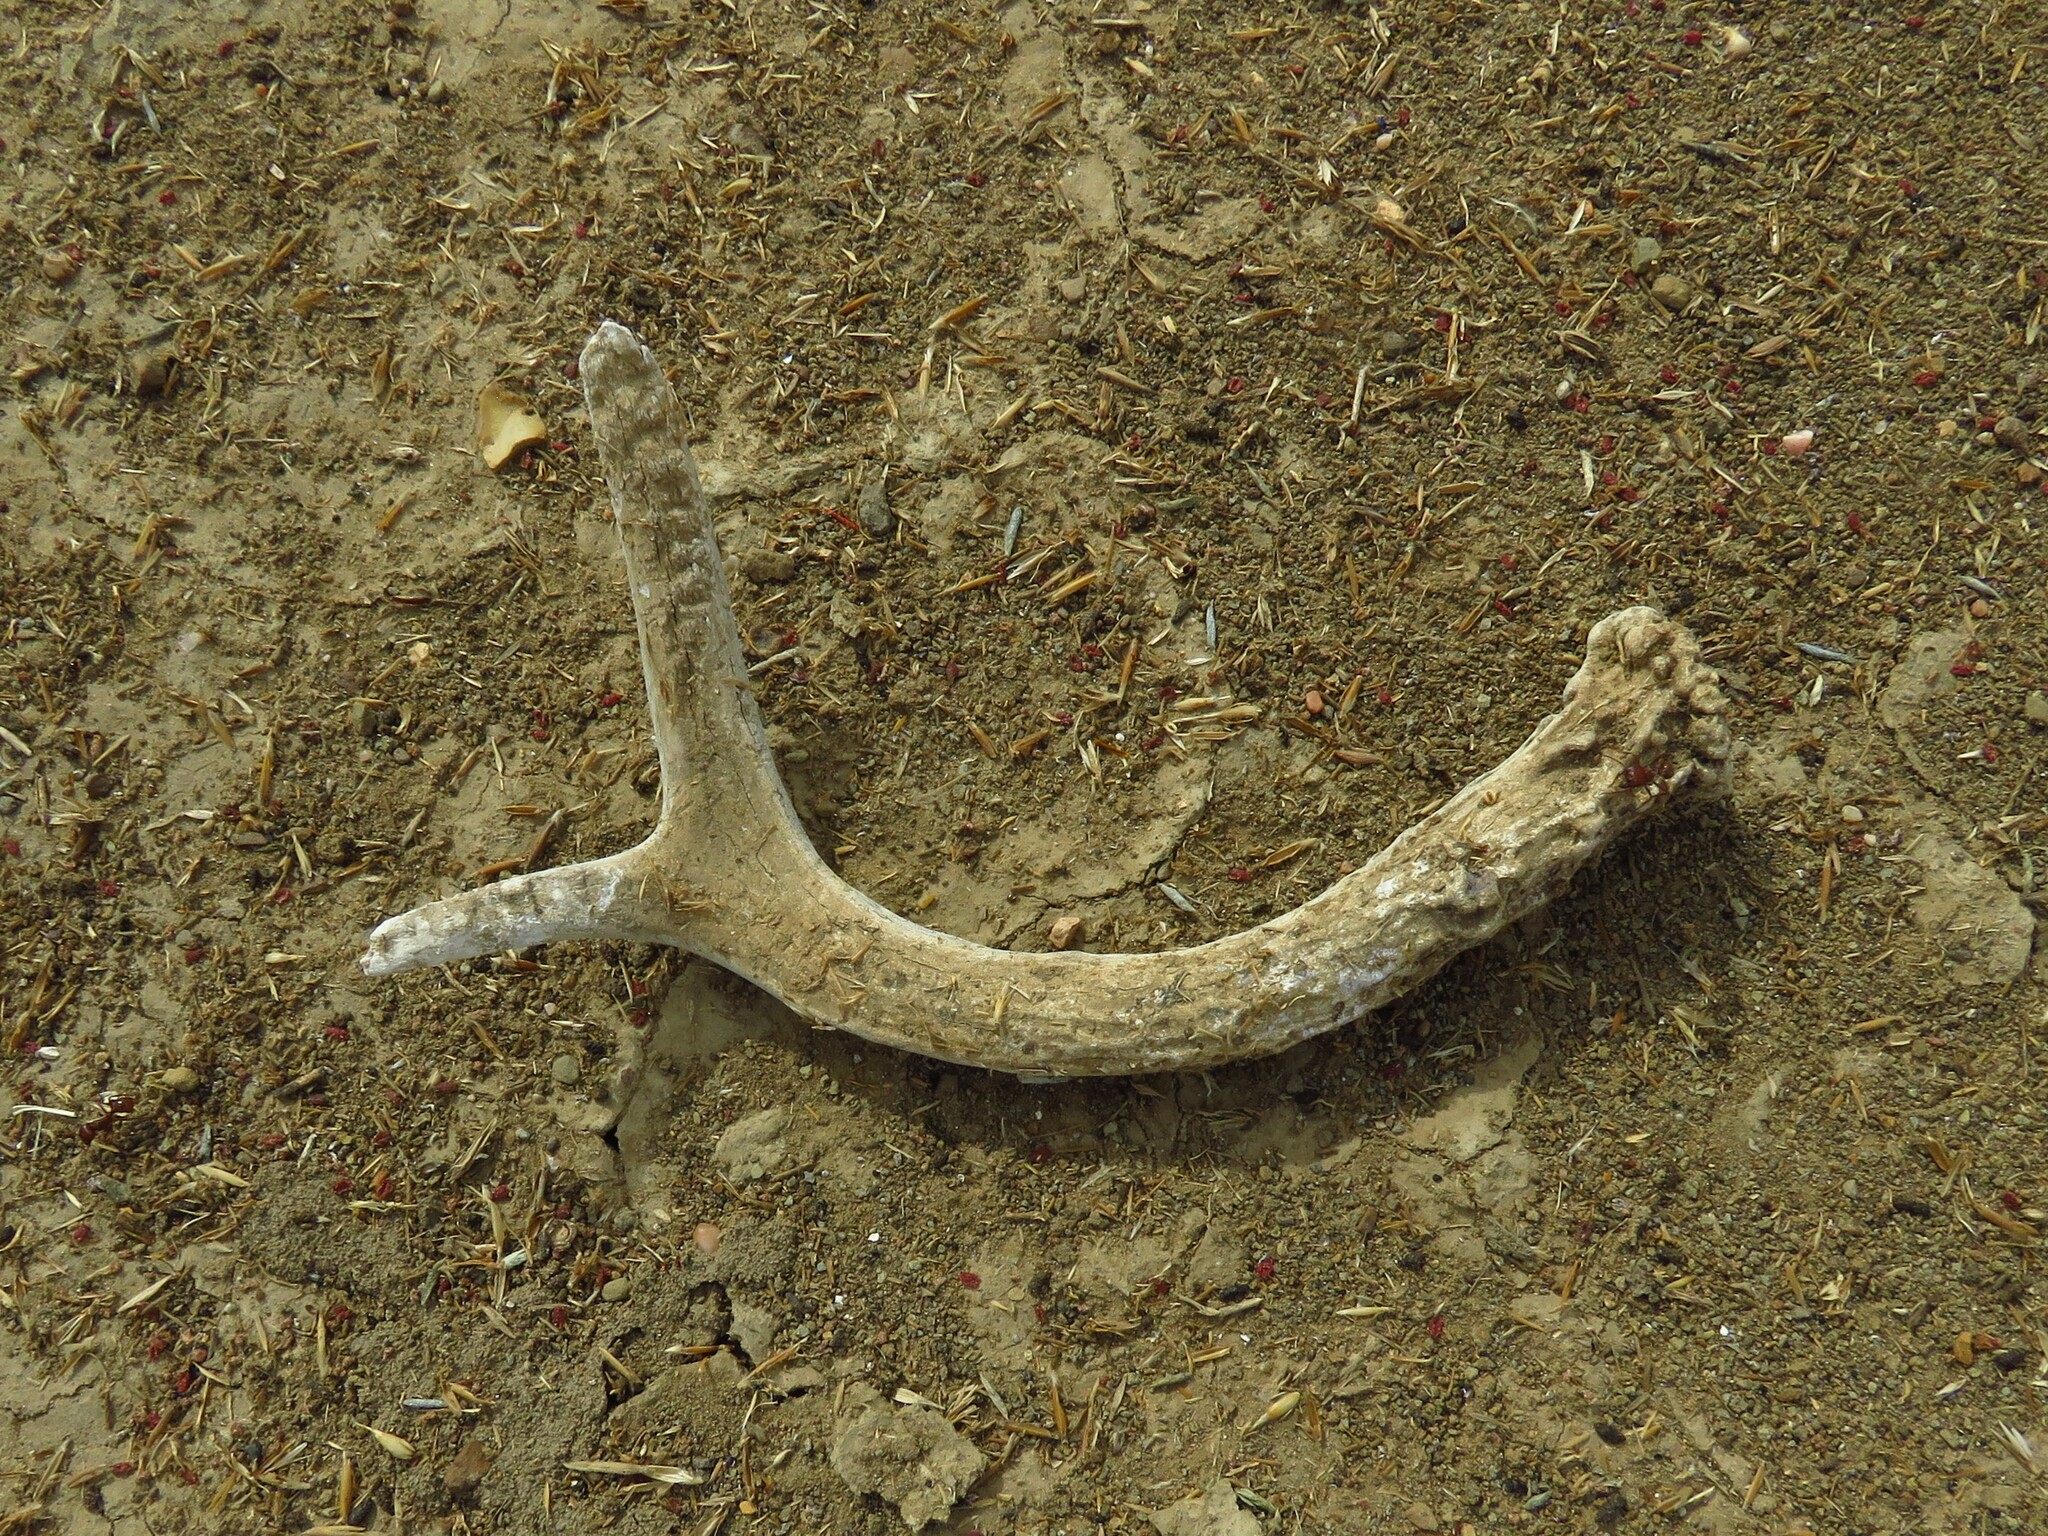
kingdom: Animalia
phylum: Chordata
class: Mammalia
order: Artiodactyla
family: Cervidae
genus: Odocoileus
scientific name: Odocoileus virginianus
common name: White-tailed deer
